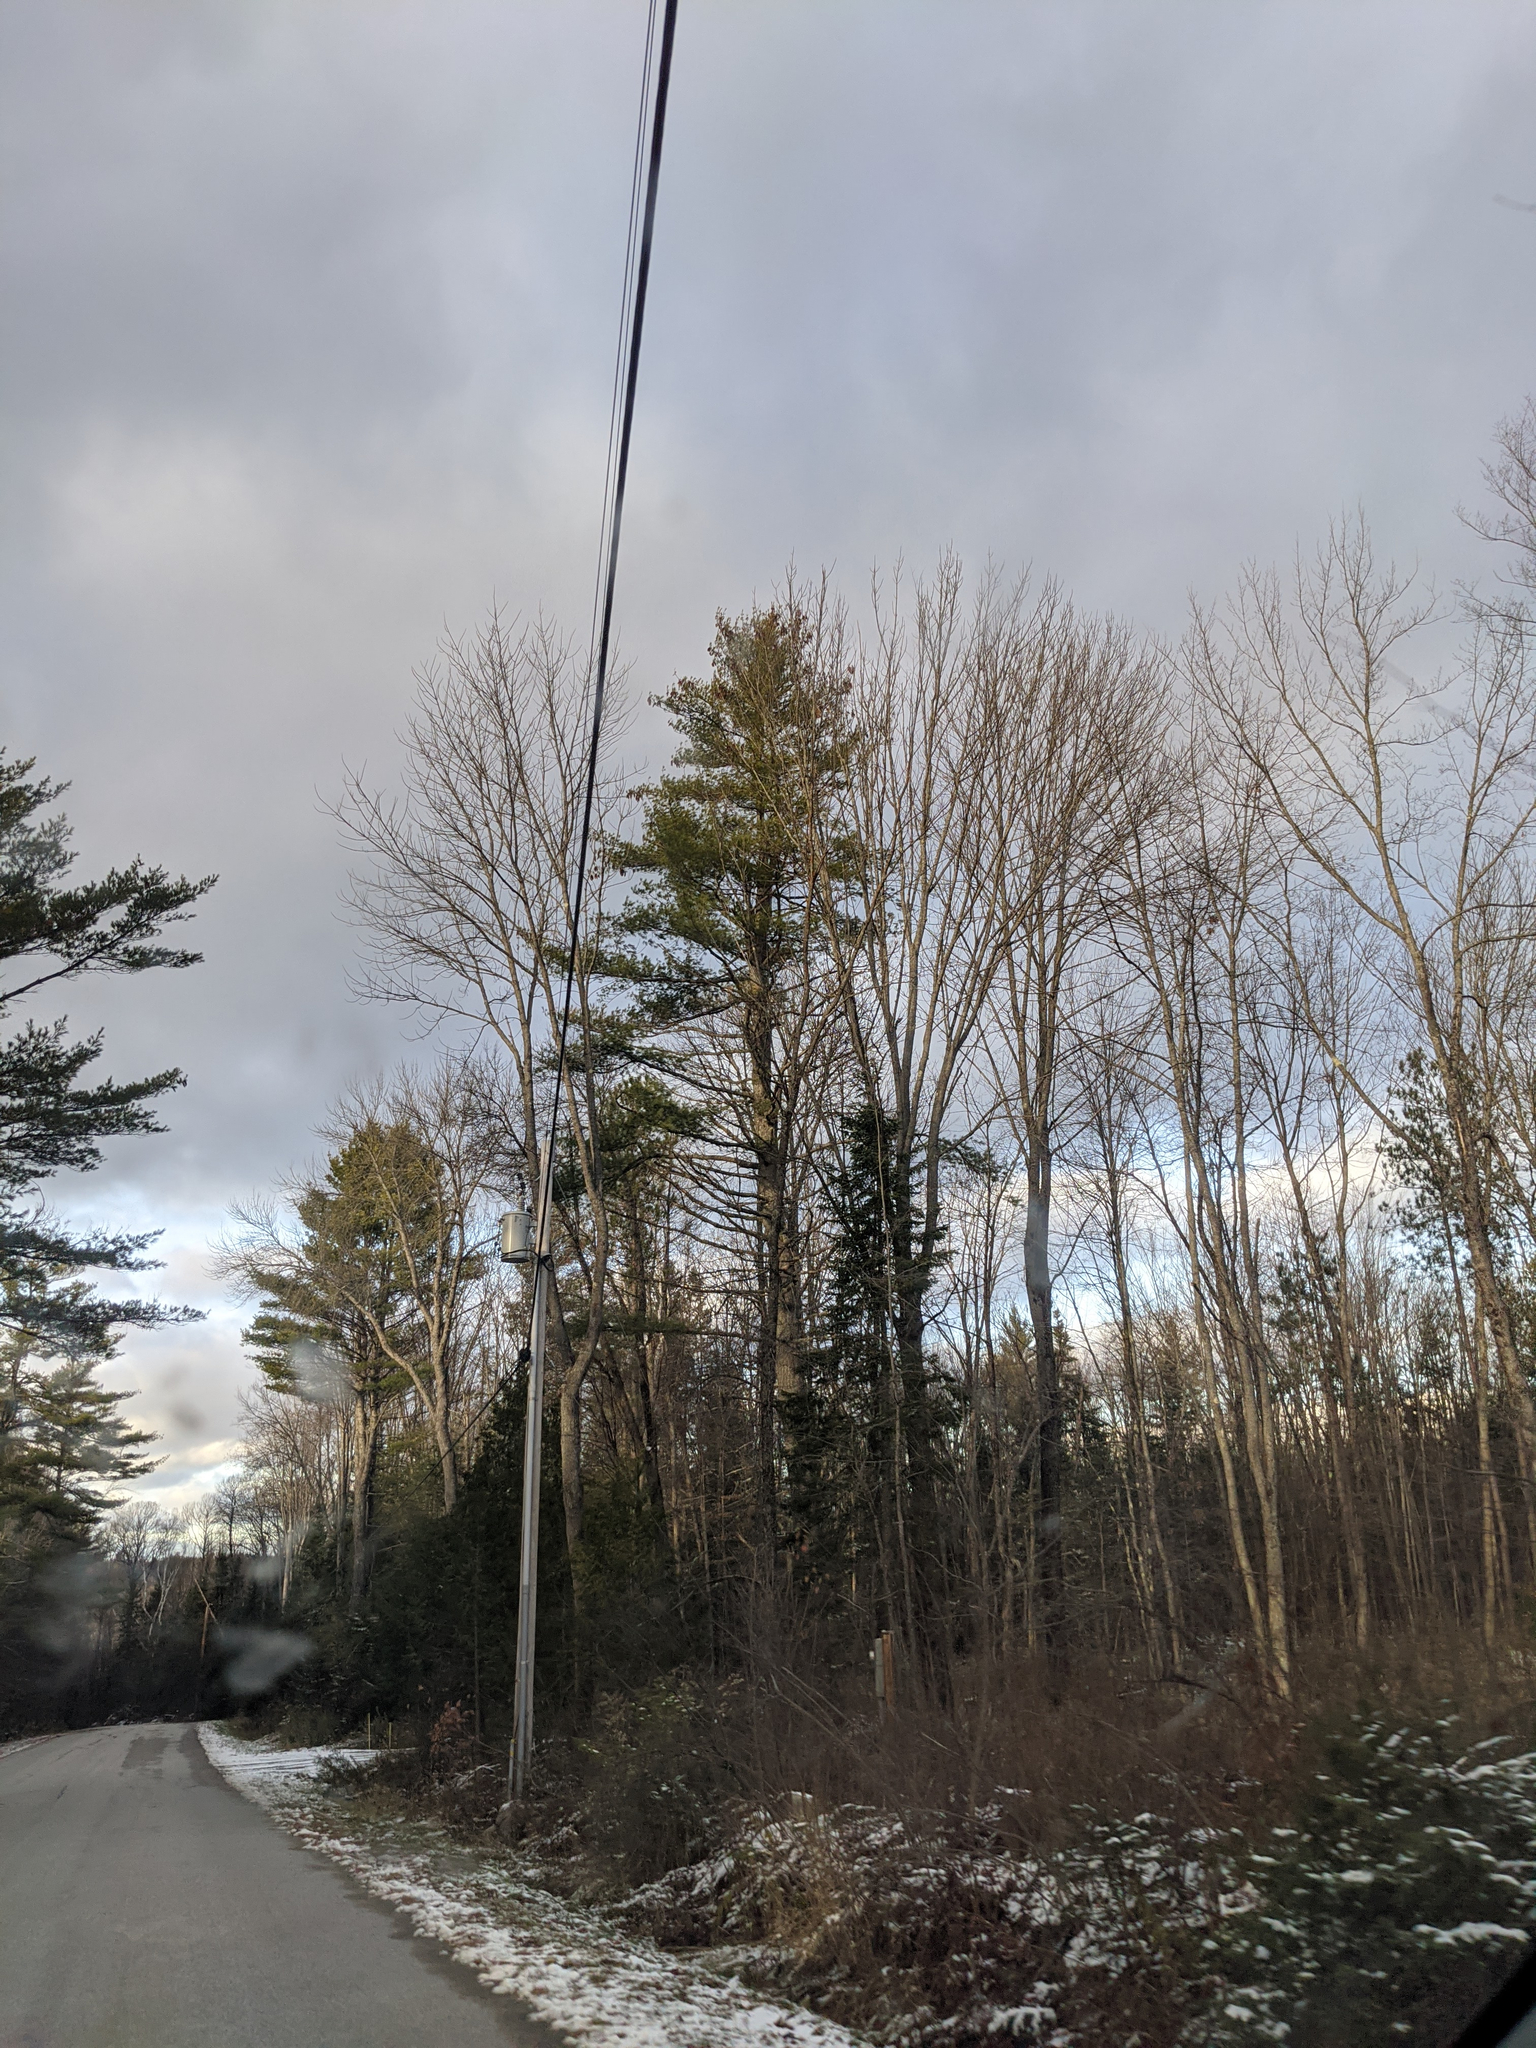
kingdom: Plantae
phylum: Tracheophyta
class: Pinopsida
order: Pinales
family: Pinaceae
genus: Pinus
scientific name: Pinus strobus
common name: Weymouth pine
